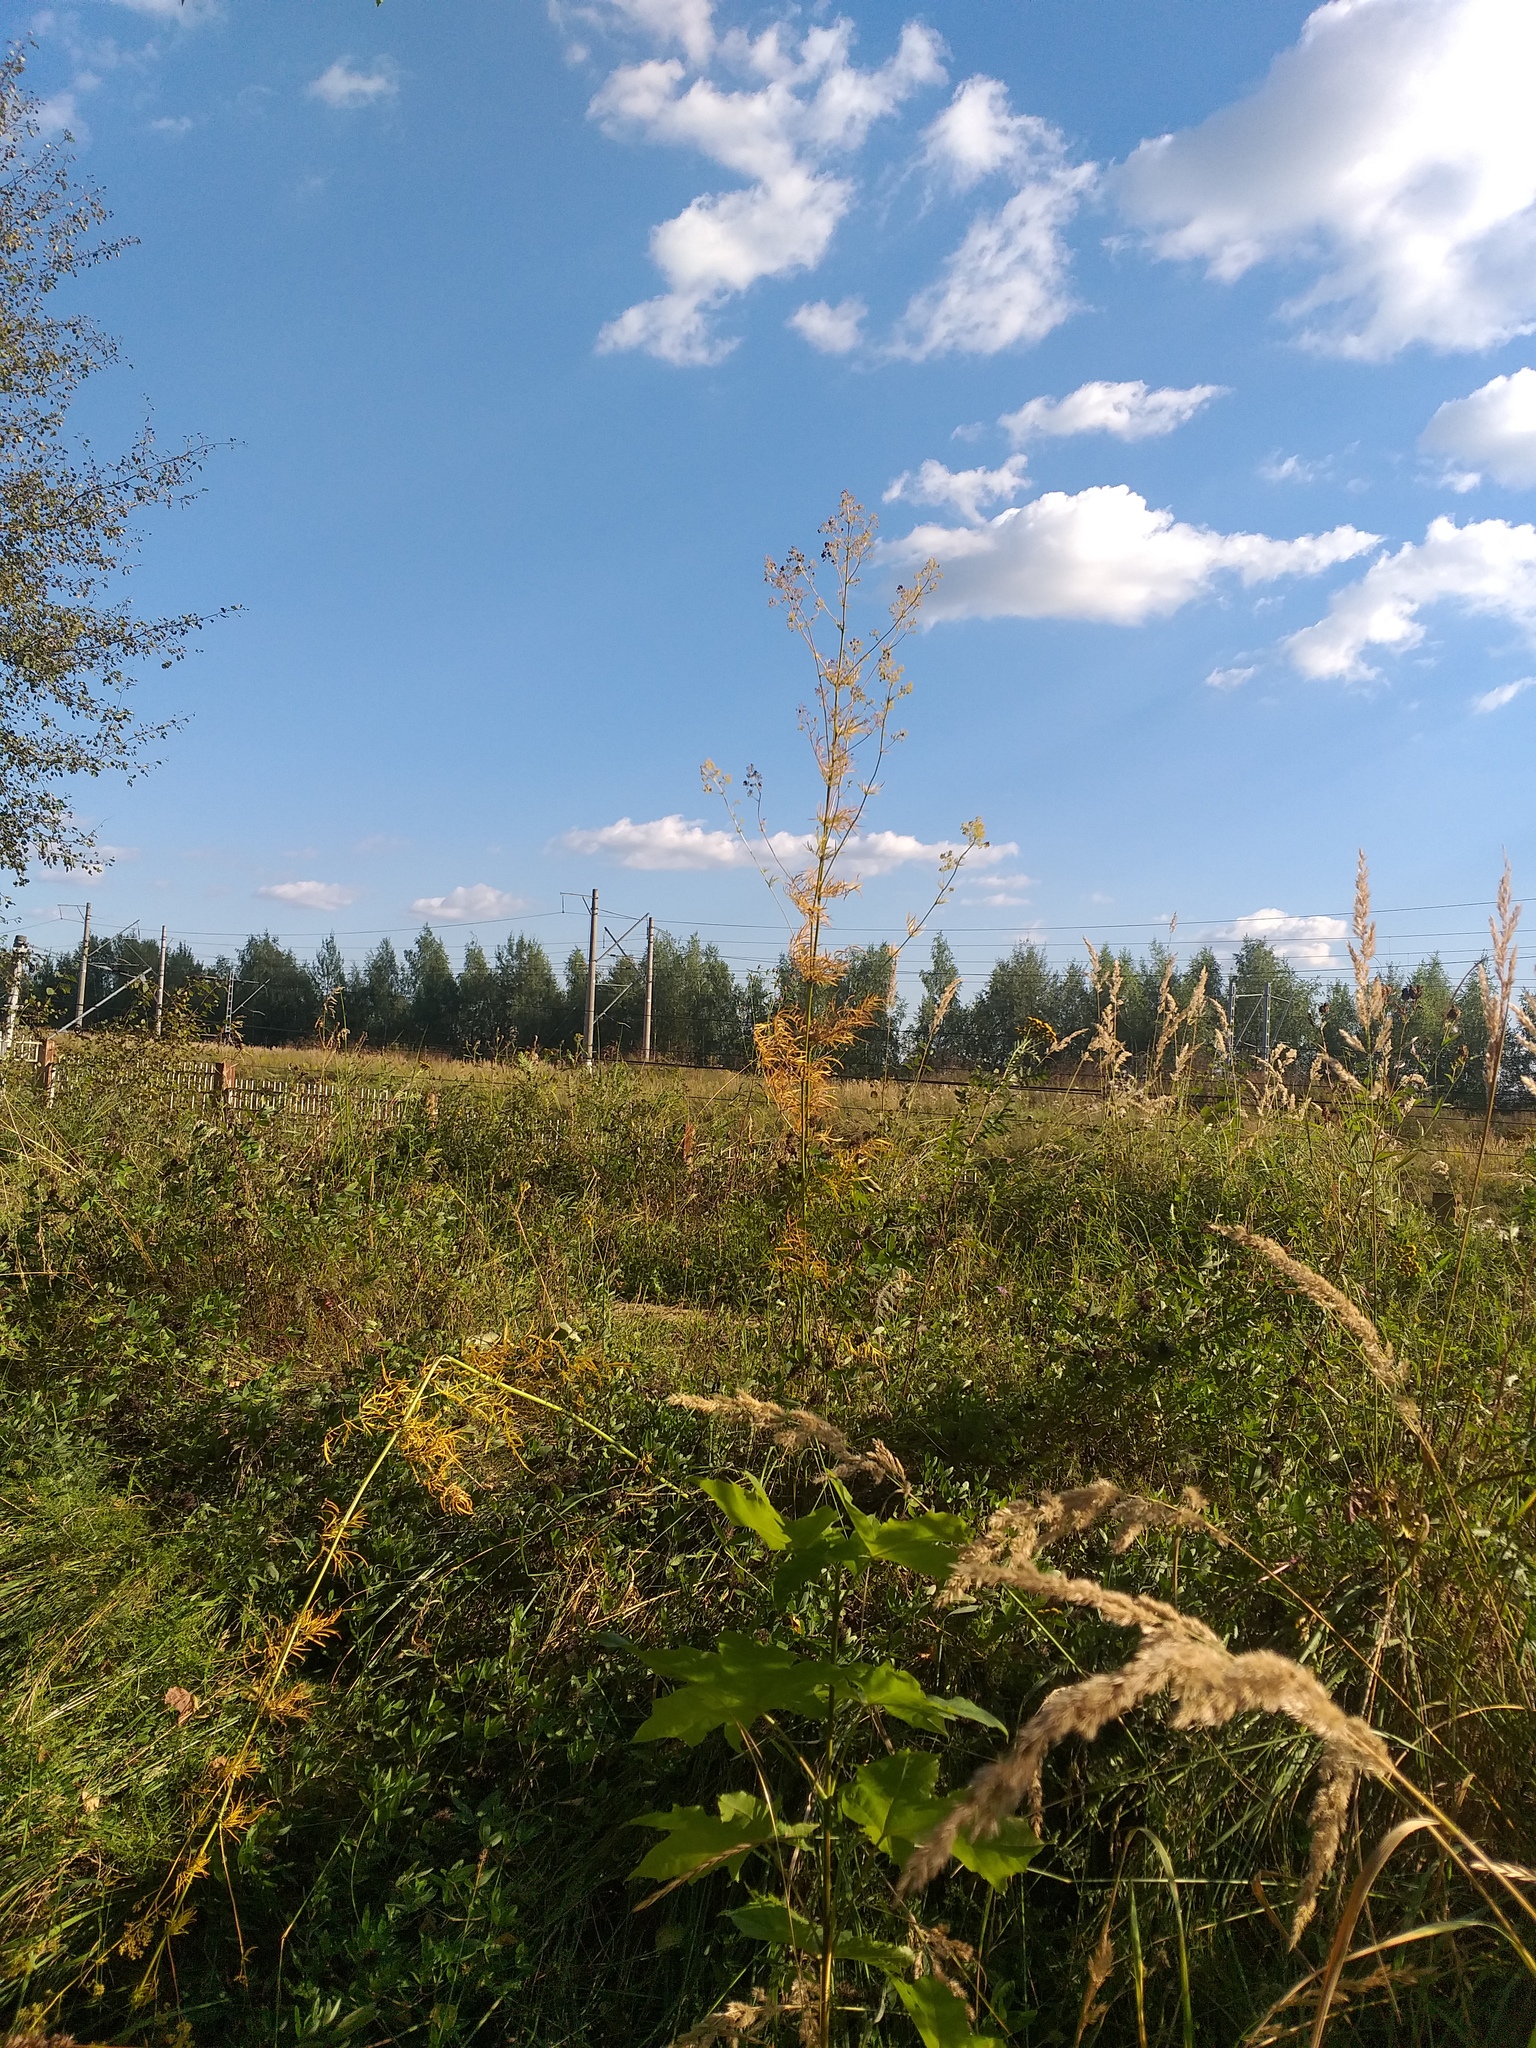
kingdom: Plantae
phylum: Tracheophyta
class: Magnoliopsida
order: Ranunculales
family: Ranunculaceae
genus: Thalictrum
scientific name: Thalictrum lucidum
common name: Shining meadow-rue
